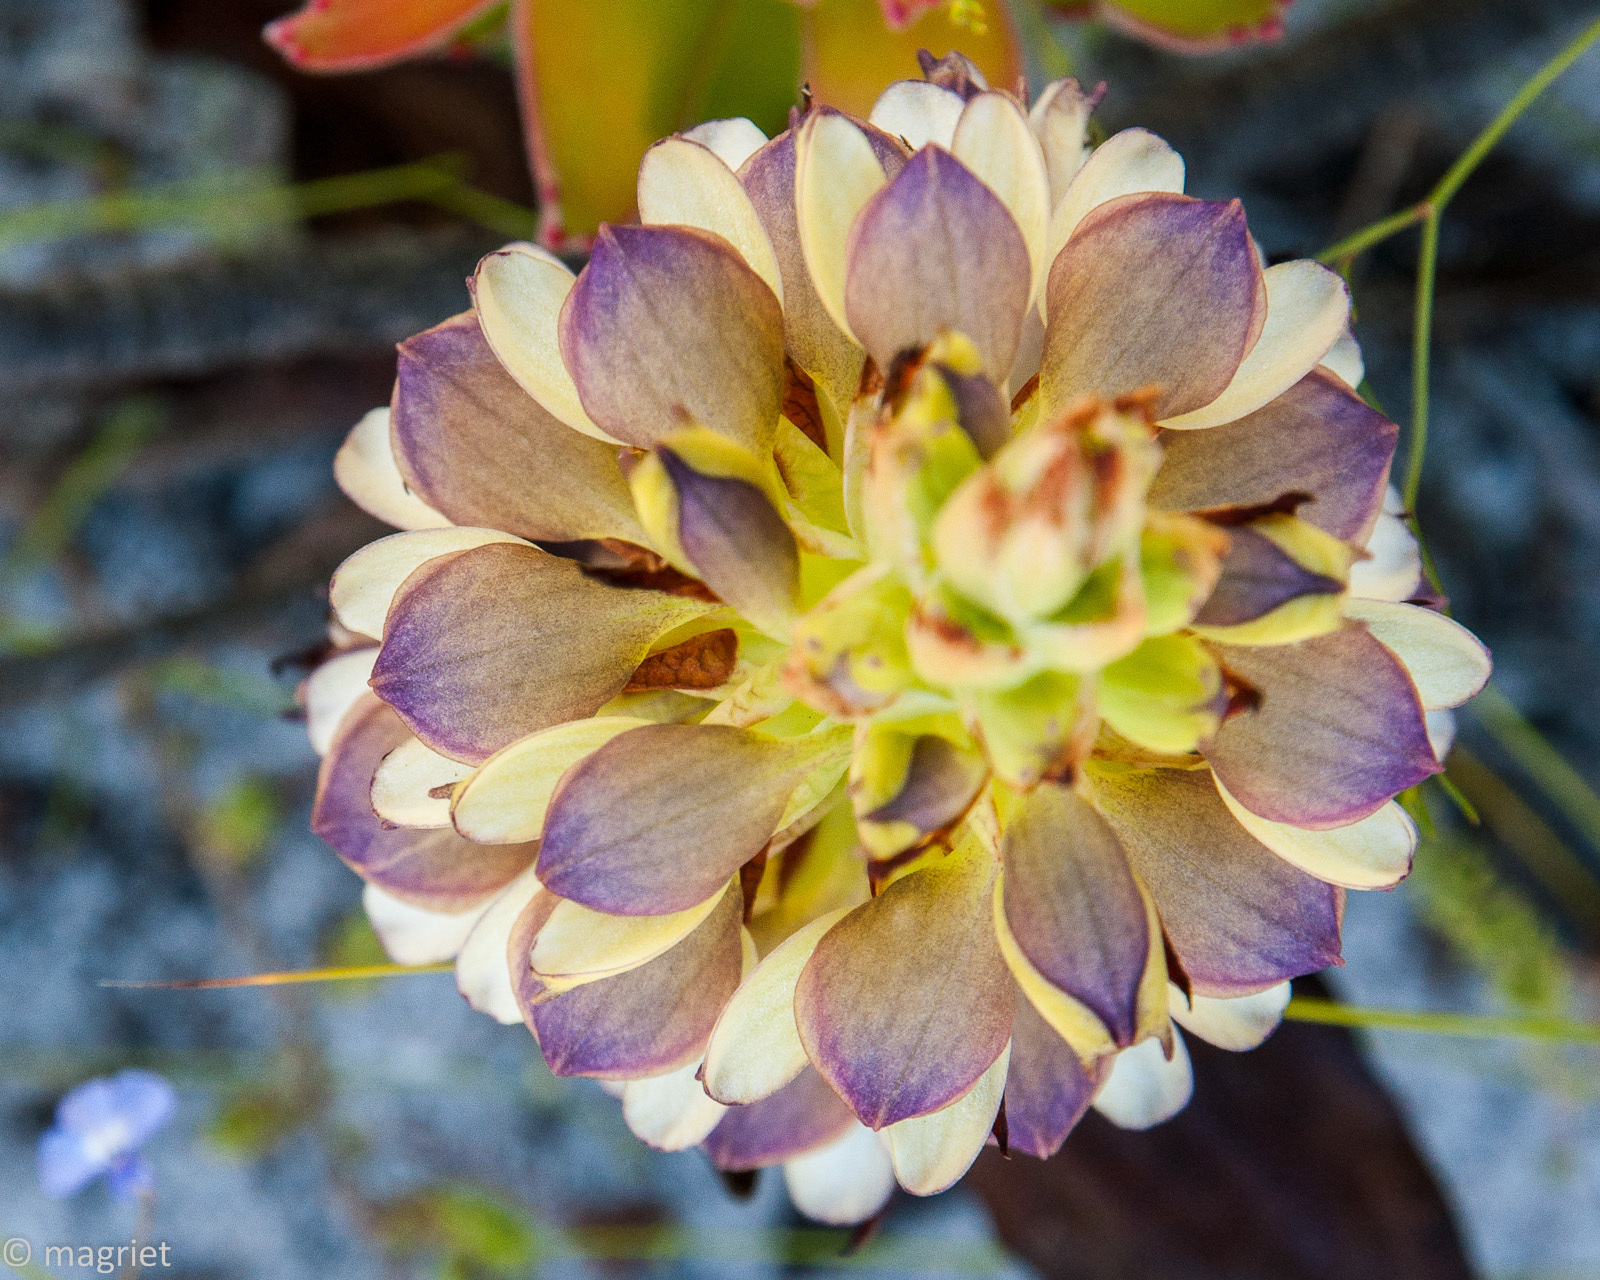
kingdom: Plantae
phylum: Tracheophyta
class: Liliopsida
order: Asparagales
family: Orchidaceae
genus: Disa
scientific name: Disa cornuta
